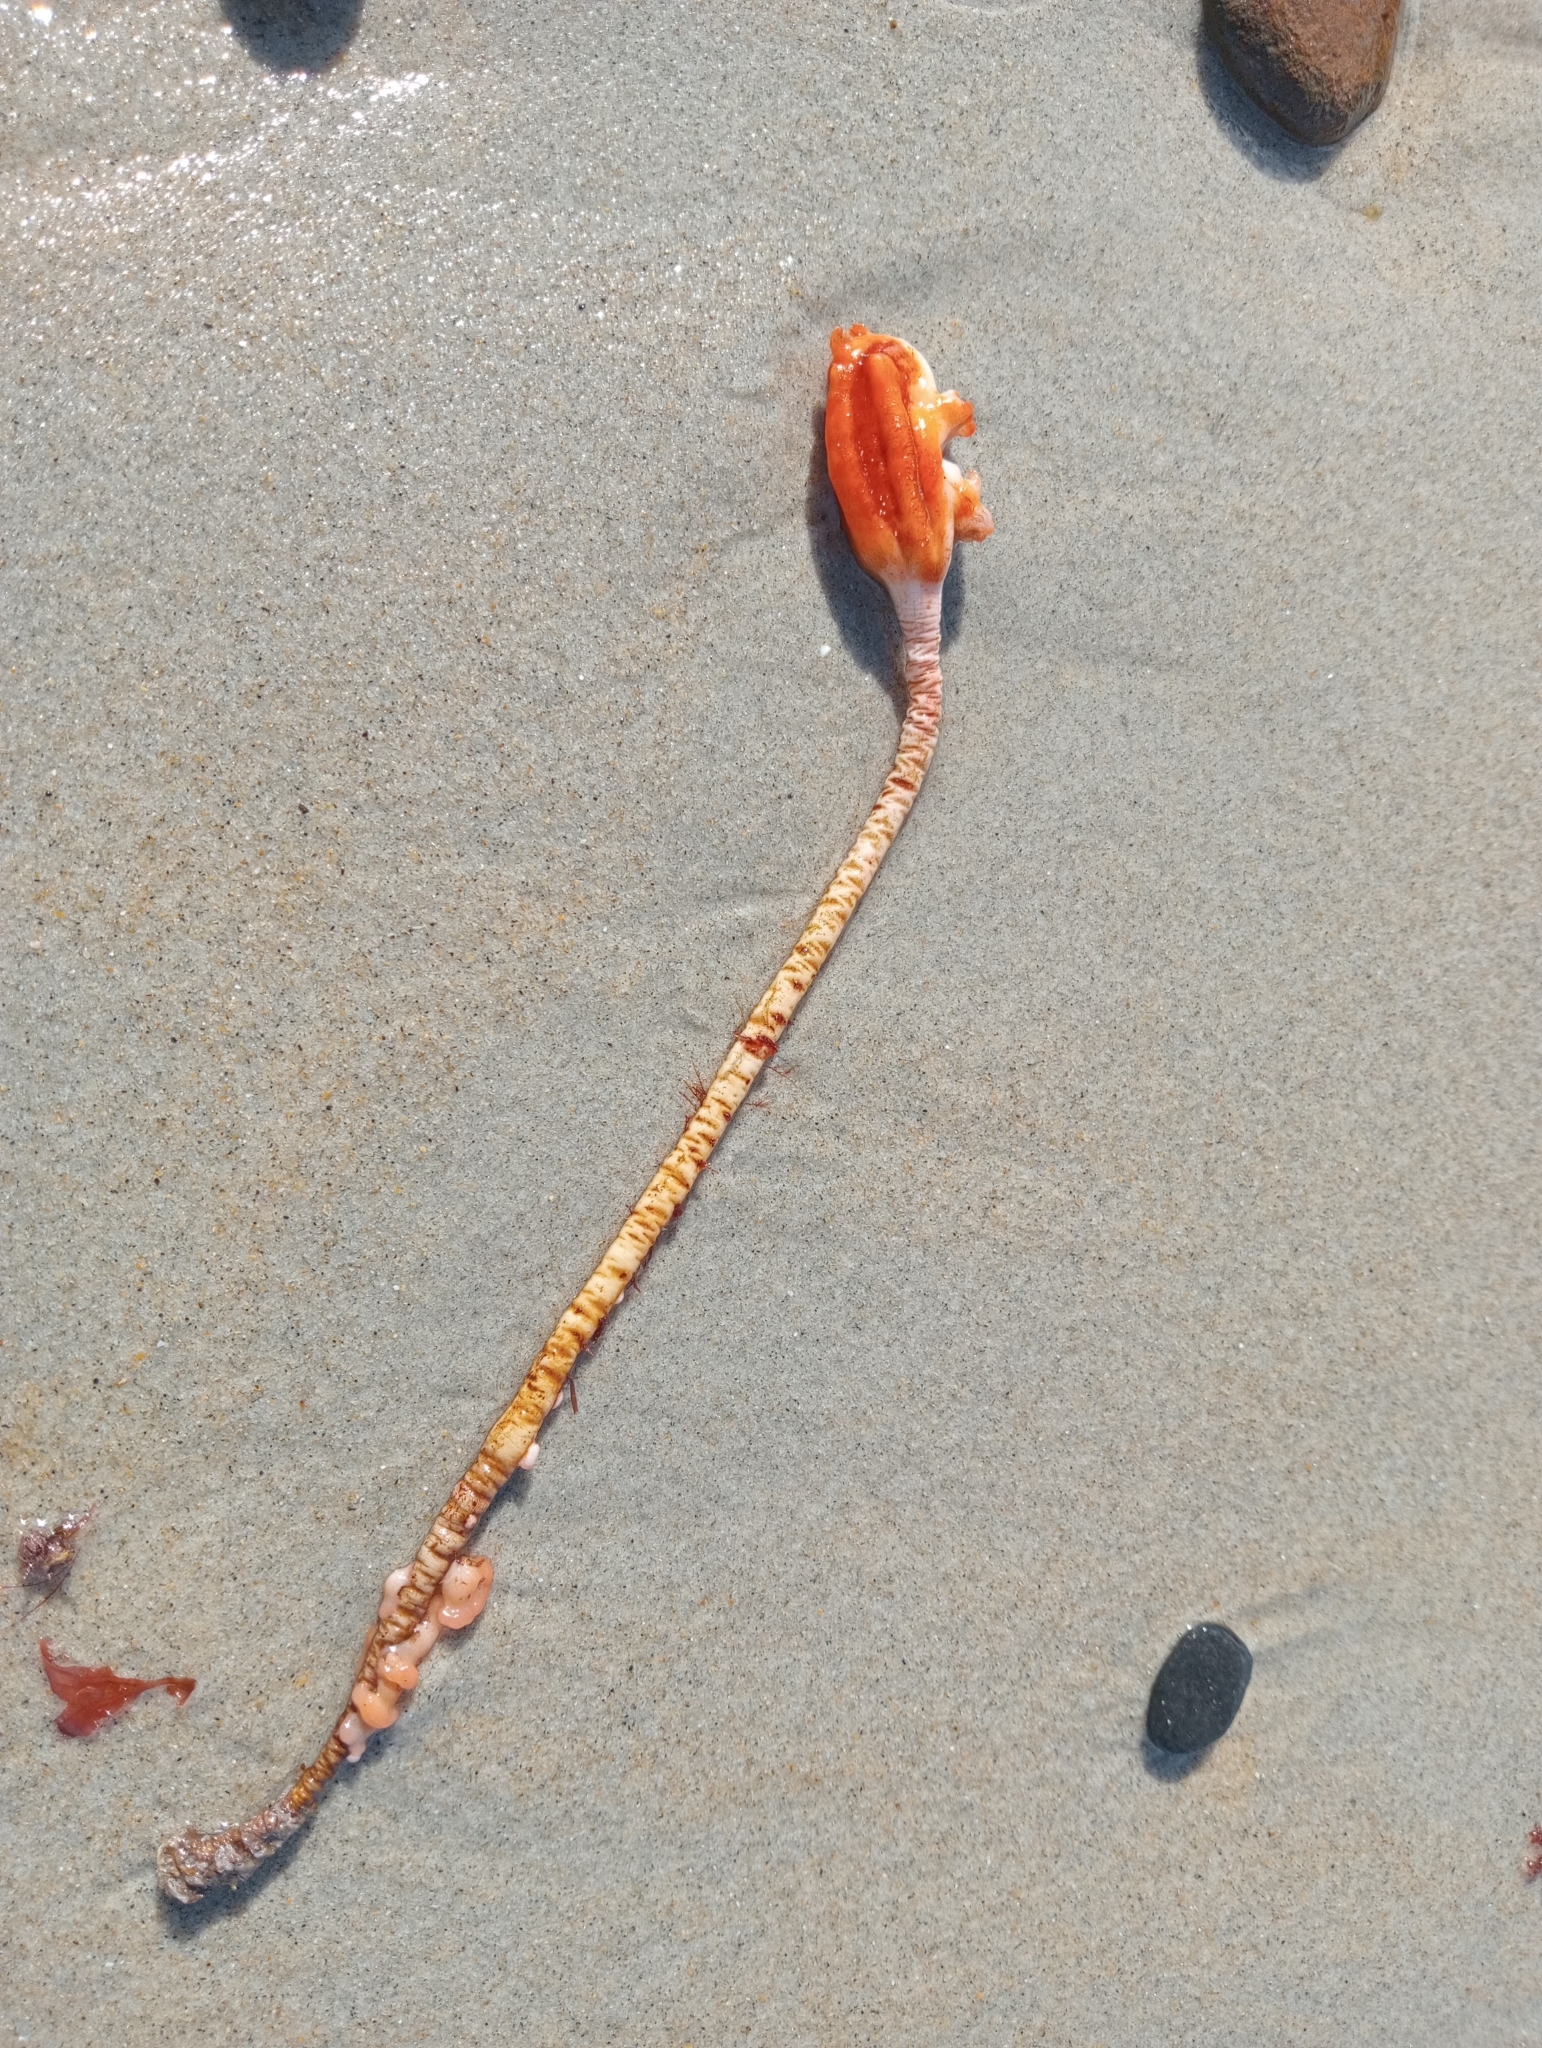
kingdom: Animalia
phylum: Chordata
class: Ascidiacea
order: Stolidobranchia
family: Pyuridae
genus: Pyura
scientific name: Pyura pachydermatina
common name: Sea tulip
